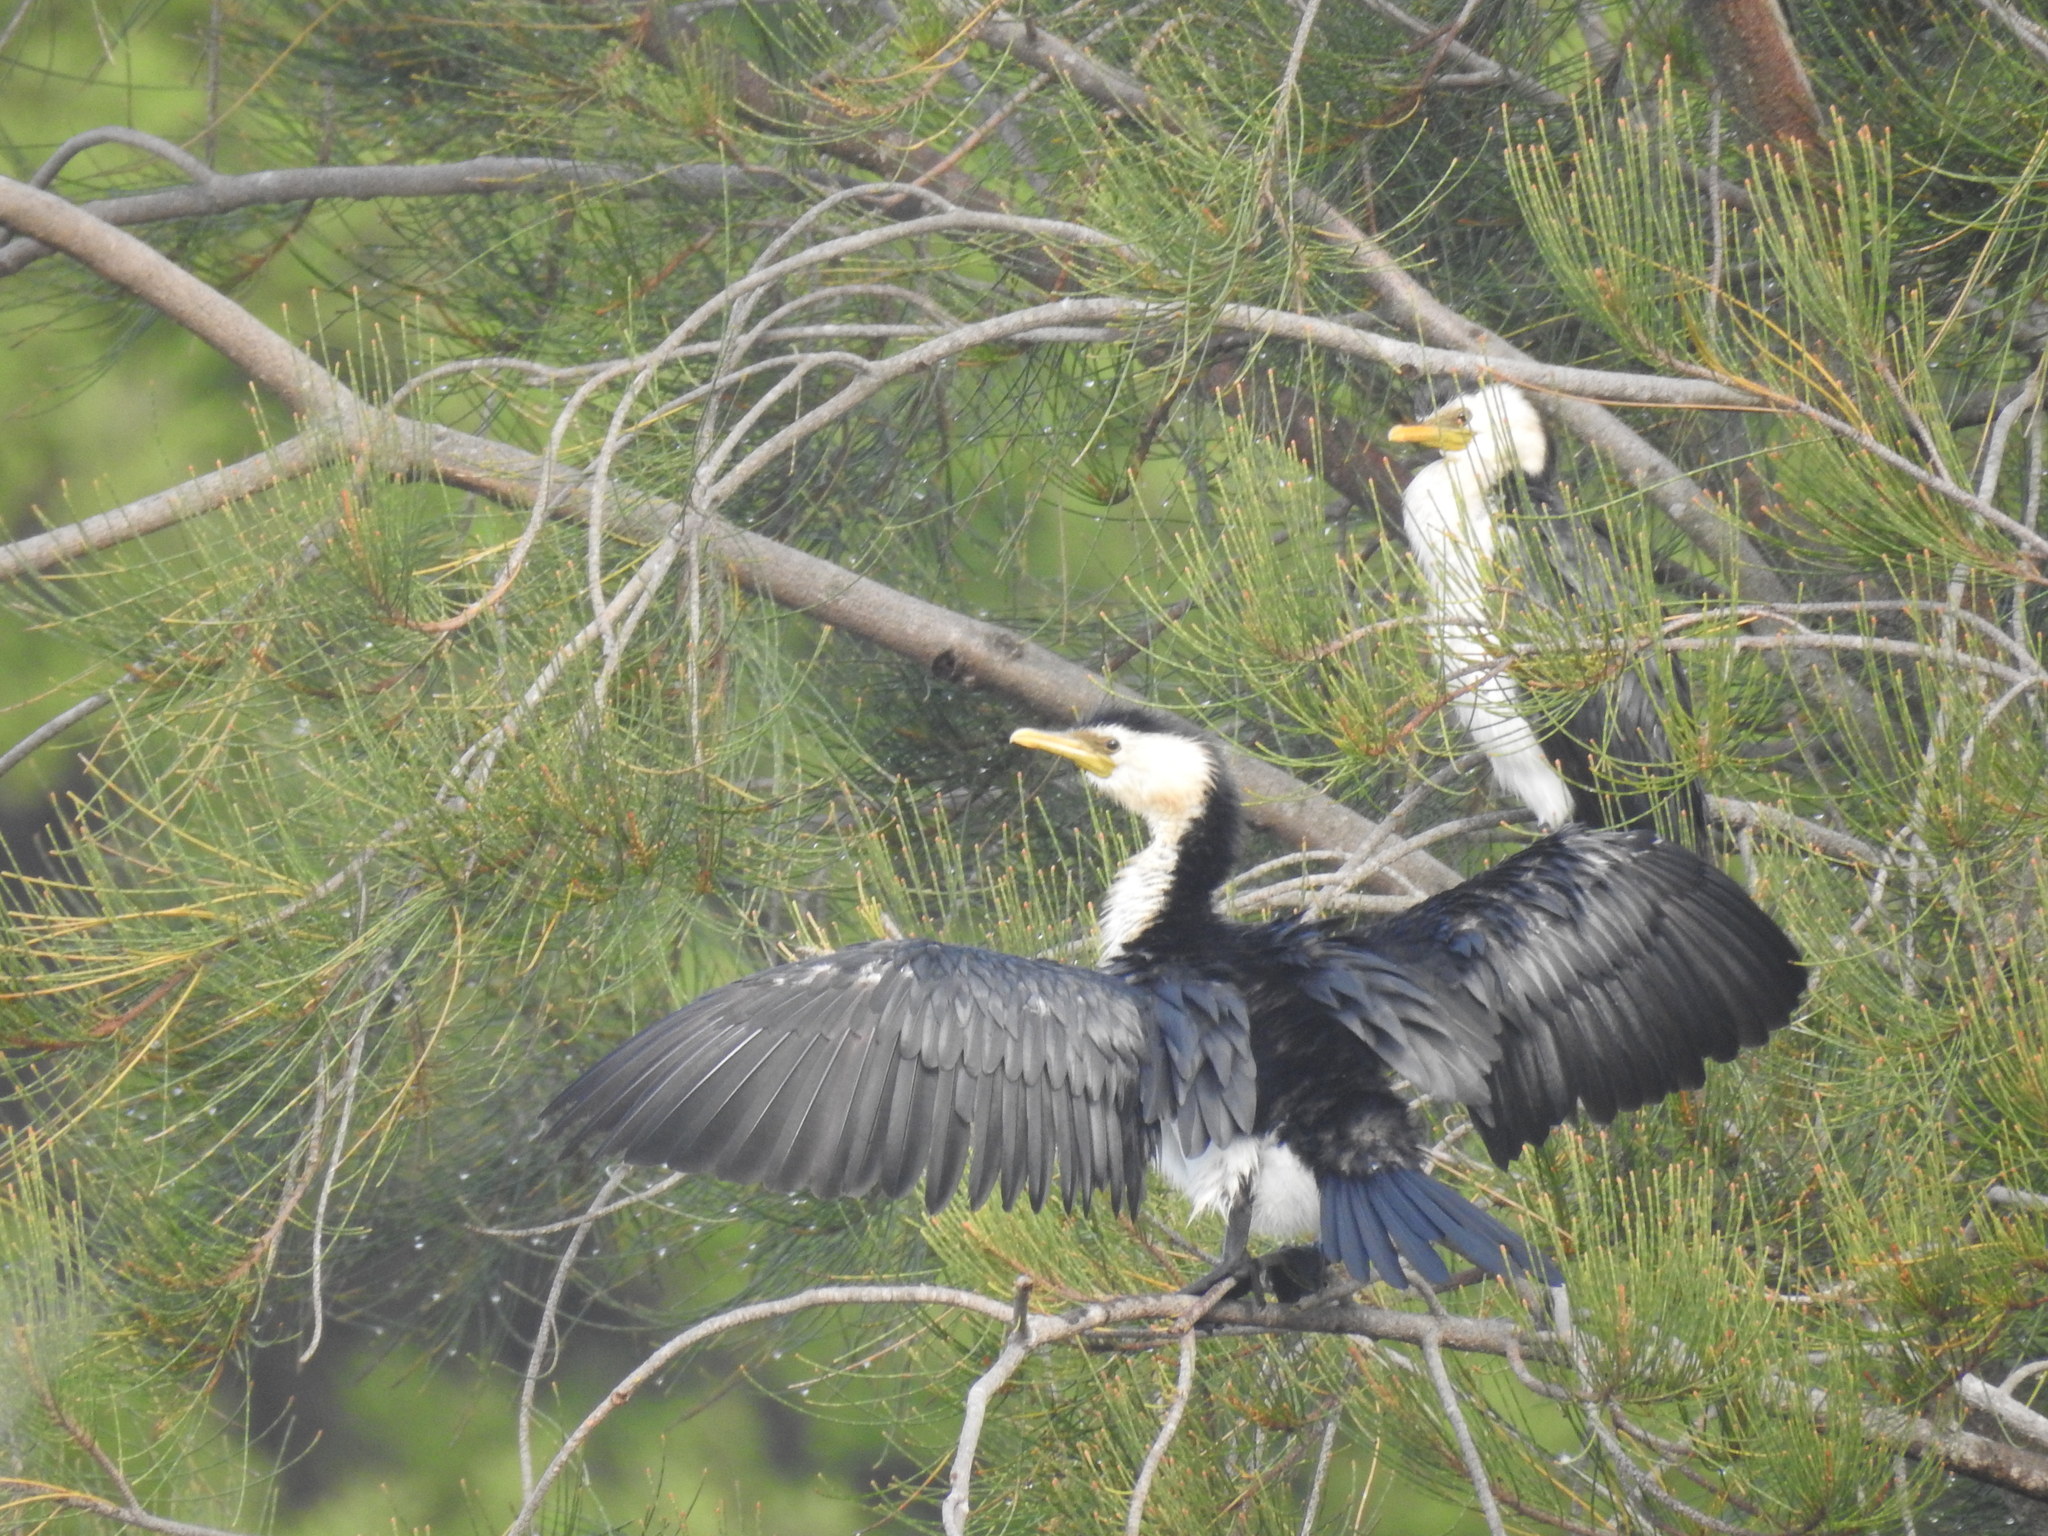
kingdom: Animalia
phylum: Chordata
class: Aves
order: Suliformes
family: Phalacrocoracidae
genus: Microcarbo
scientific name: Microcarbo melanoleucos
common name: Little pied cormorant
